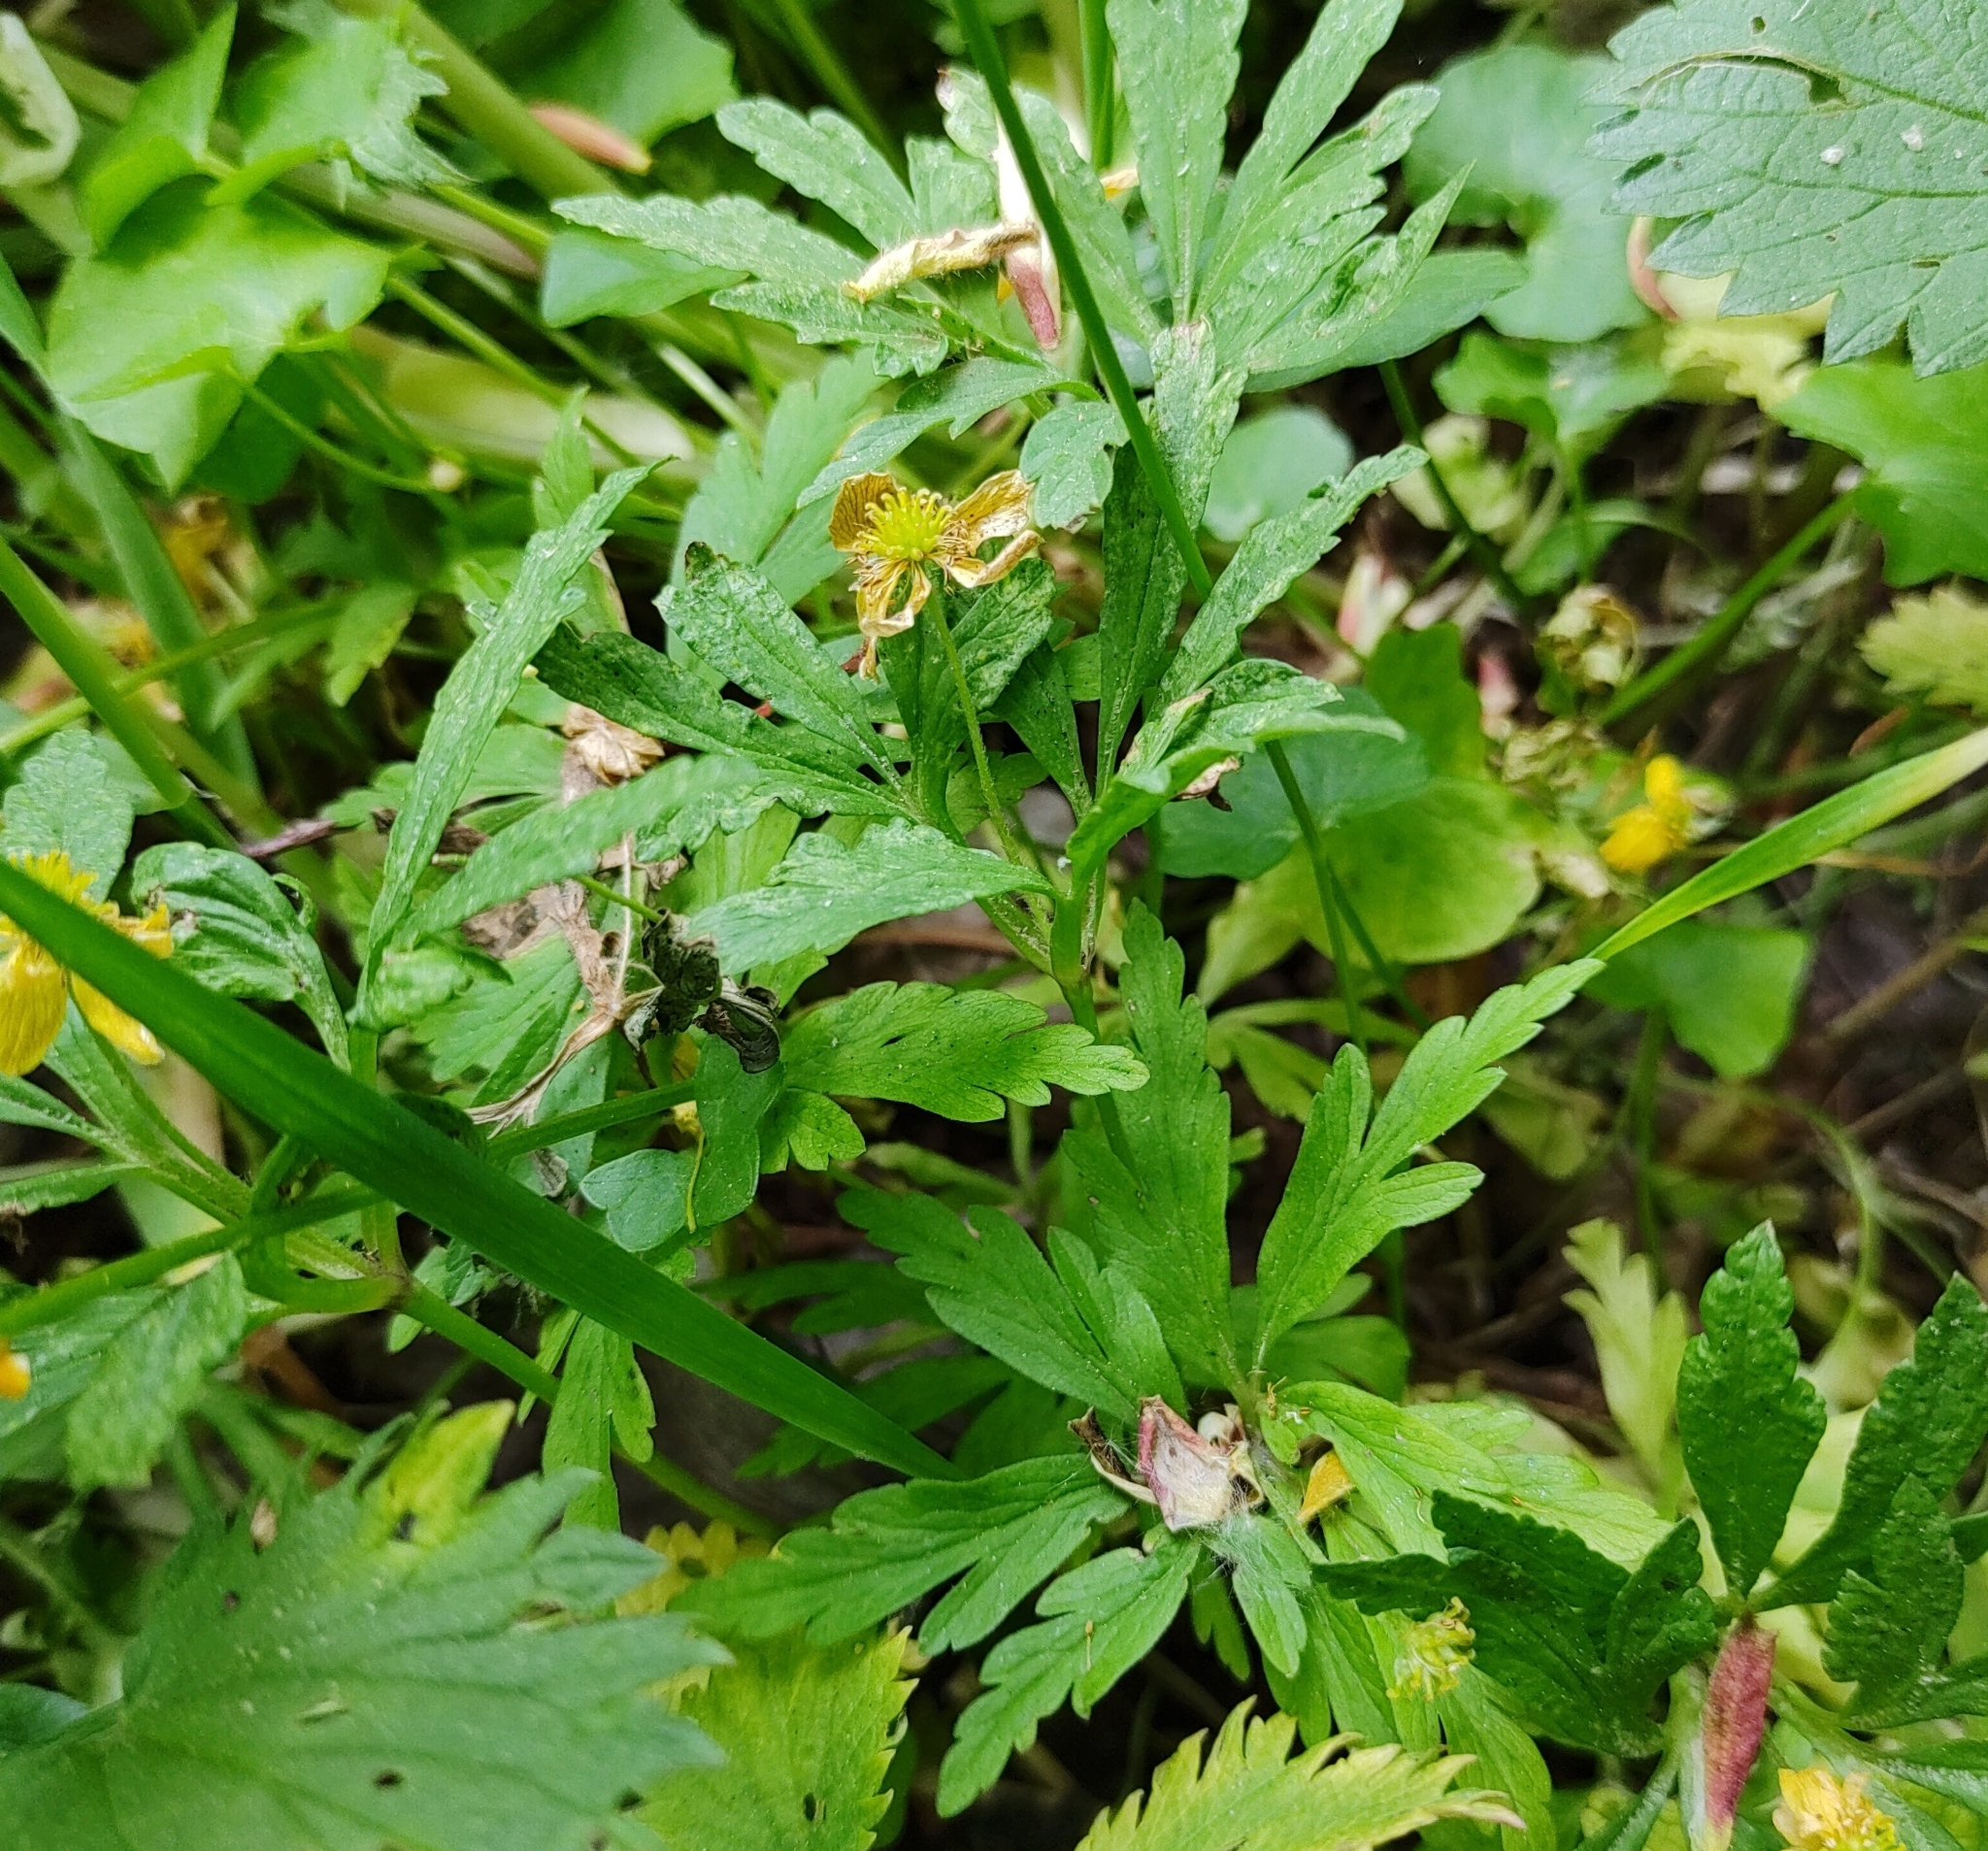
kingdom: Plantae
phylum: Tracheophyta
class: Magnoliopsida
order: Ranunculales
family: Ranunculaceae
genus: Anemone
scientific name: Anemone ranunculoides
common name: Yellow anemone
